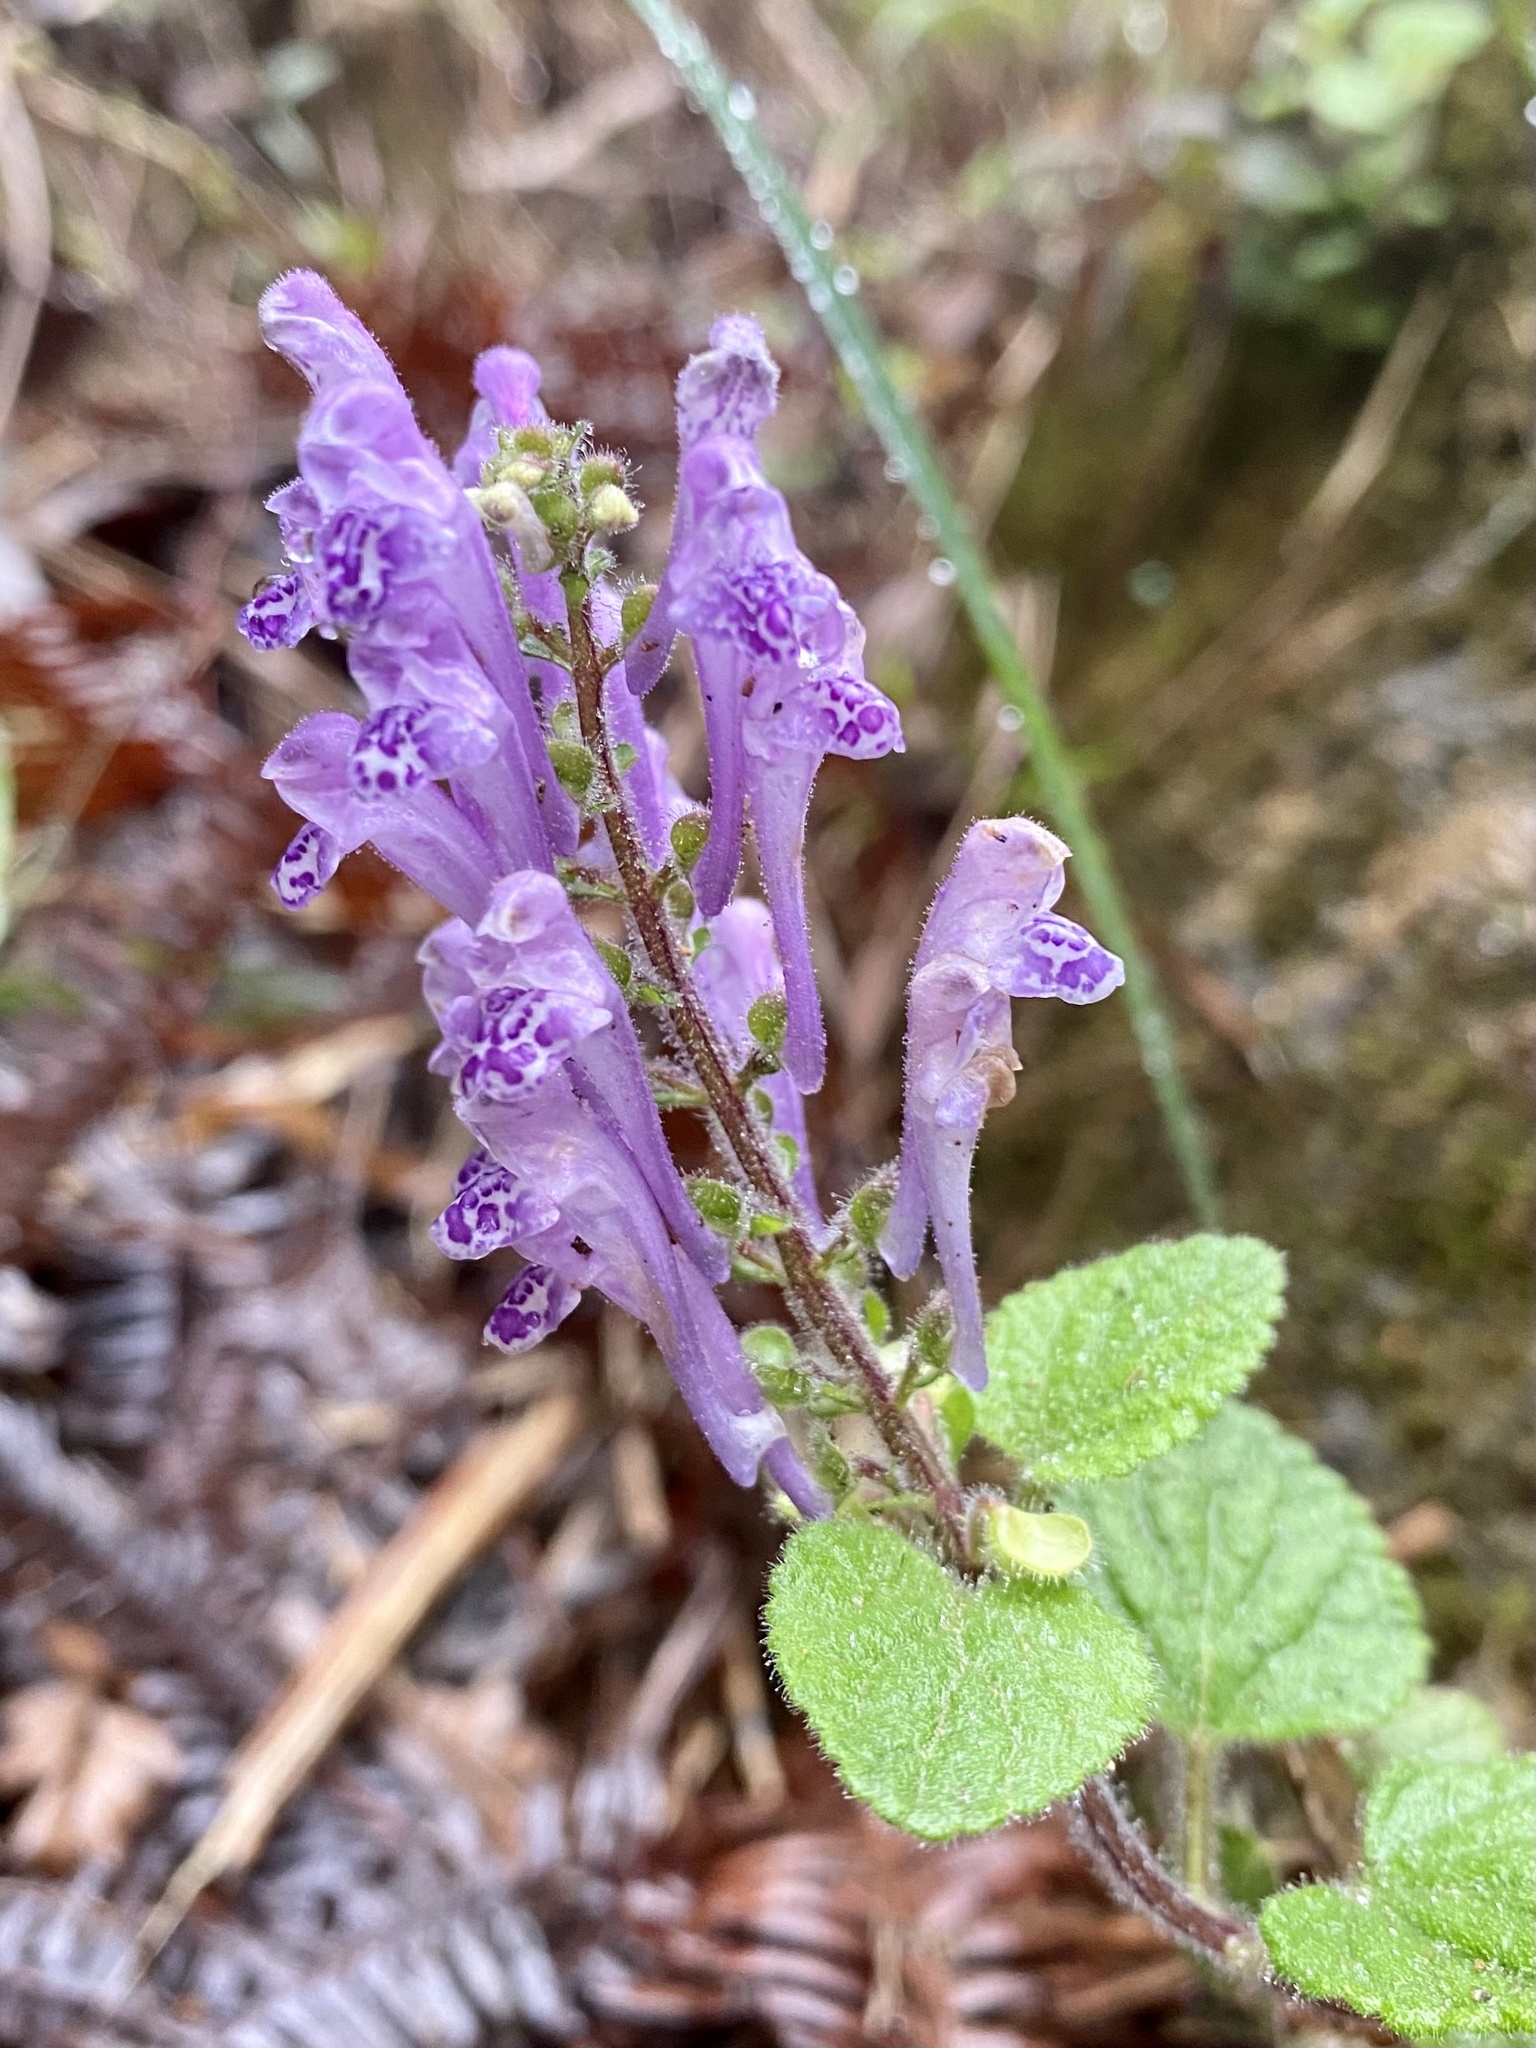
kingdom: Plantae
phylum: Tracheophyta
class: Magnoliopsida
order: Lamiales
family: Lamiaceae
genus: Scutellaria
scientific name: Scutellaria indica
